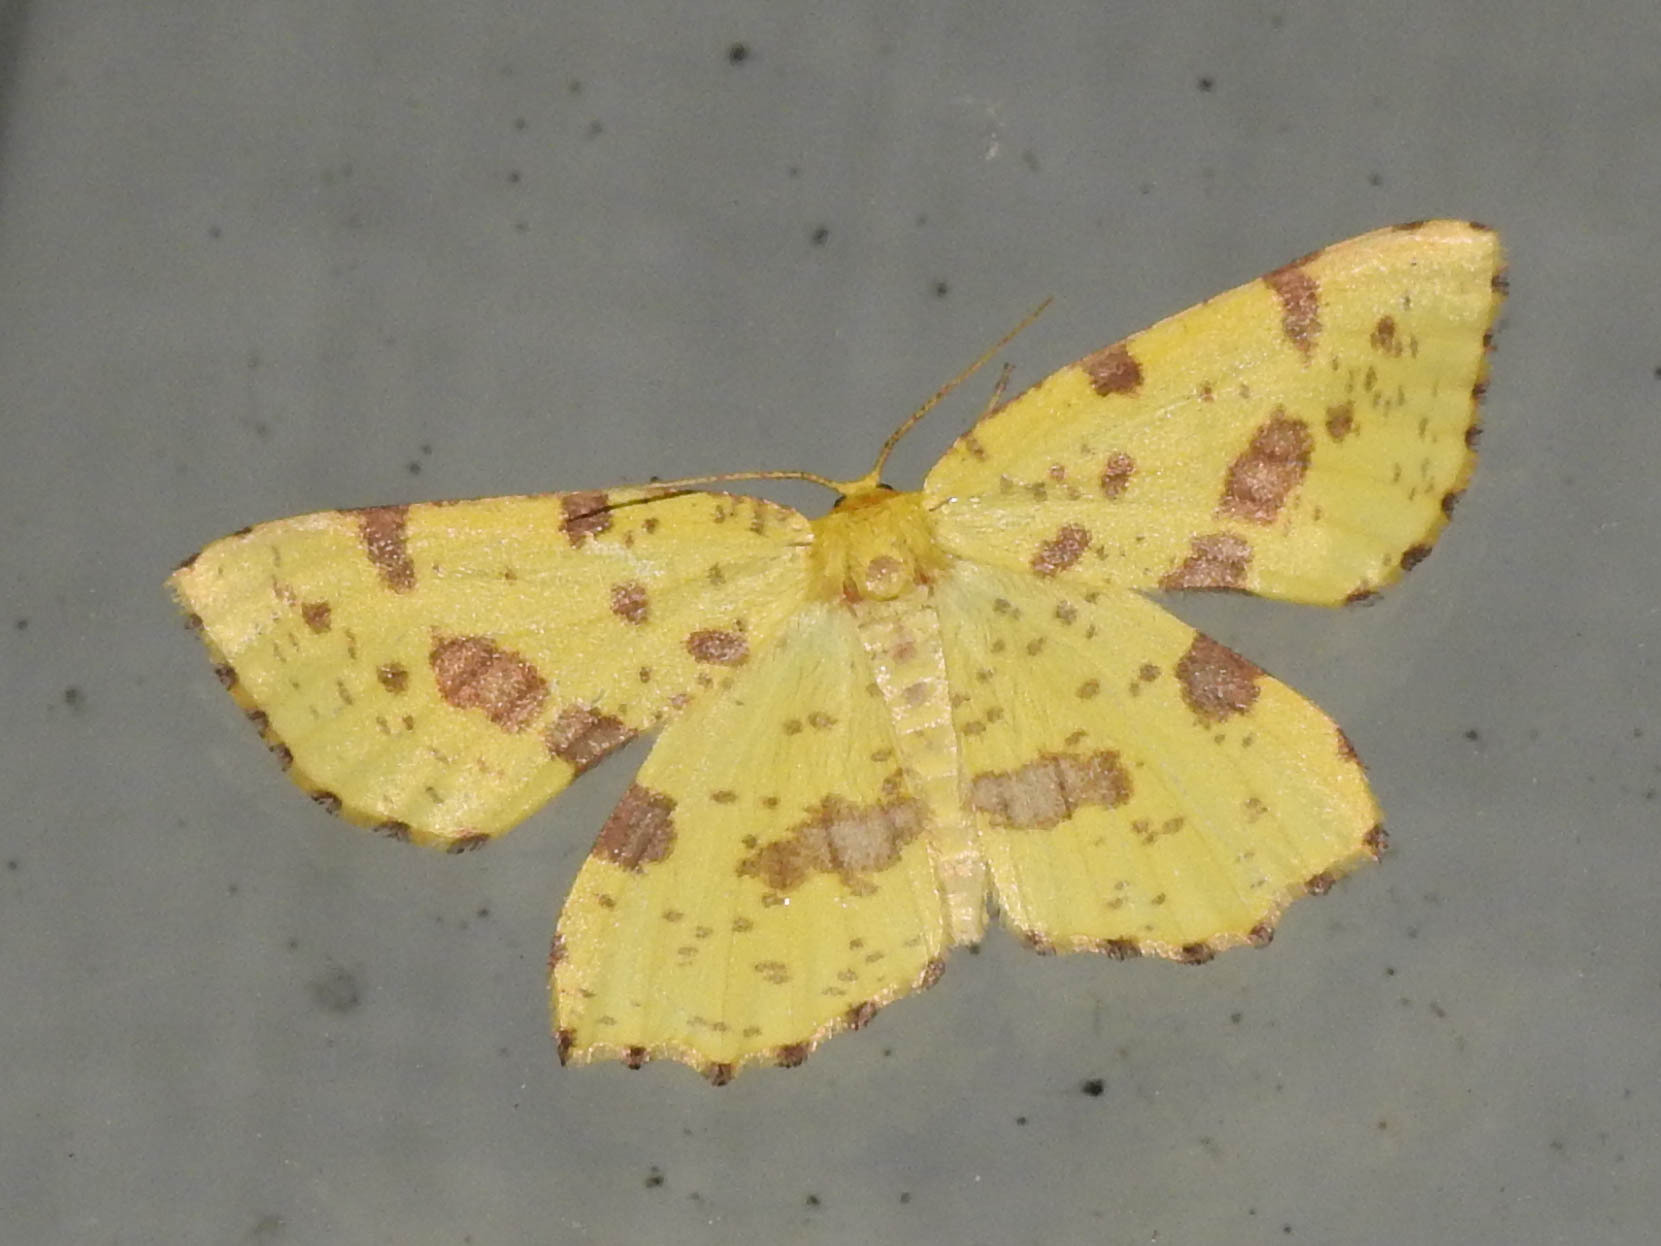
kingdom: Animalia
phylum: Arthropoda
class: Insecta
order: Lepidoptera
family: Geometridae
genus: Xanthotype
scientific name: Xanthotype
